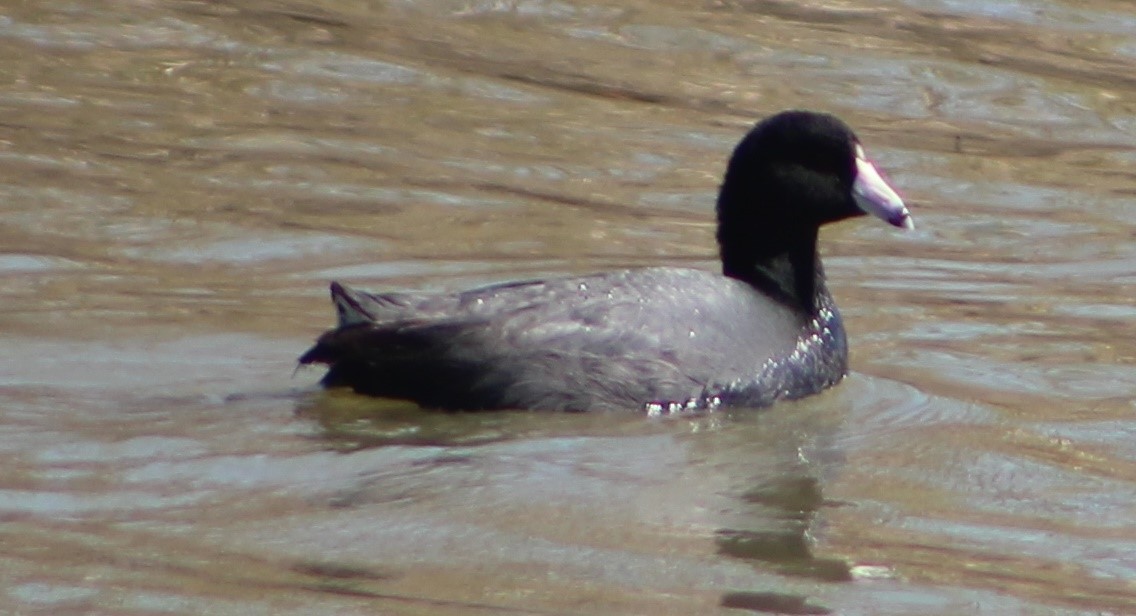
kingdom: Animalia
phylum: Chordata
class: Aves
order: Gruiformes
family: Rallidae
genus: Fulica
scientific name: Fulica americana
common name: American coot
